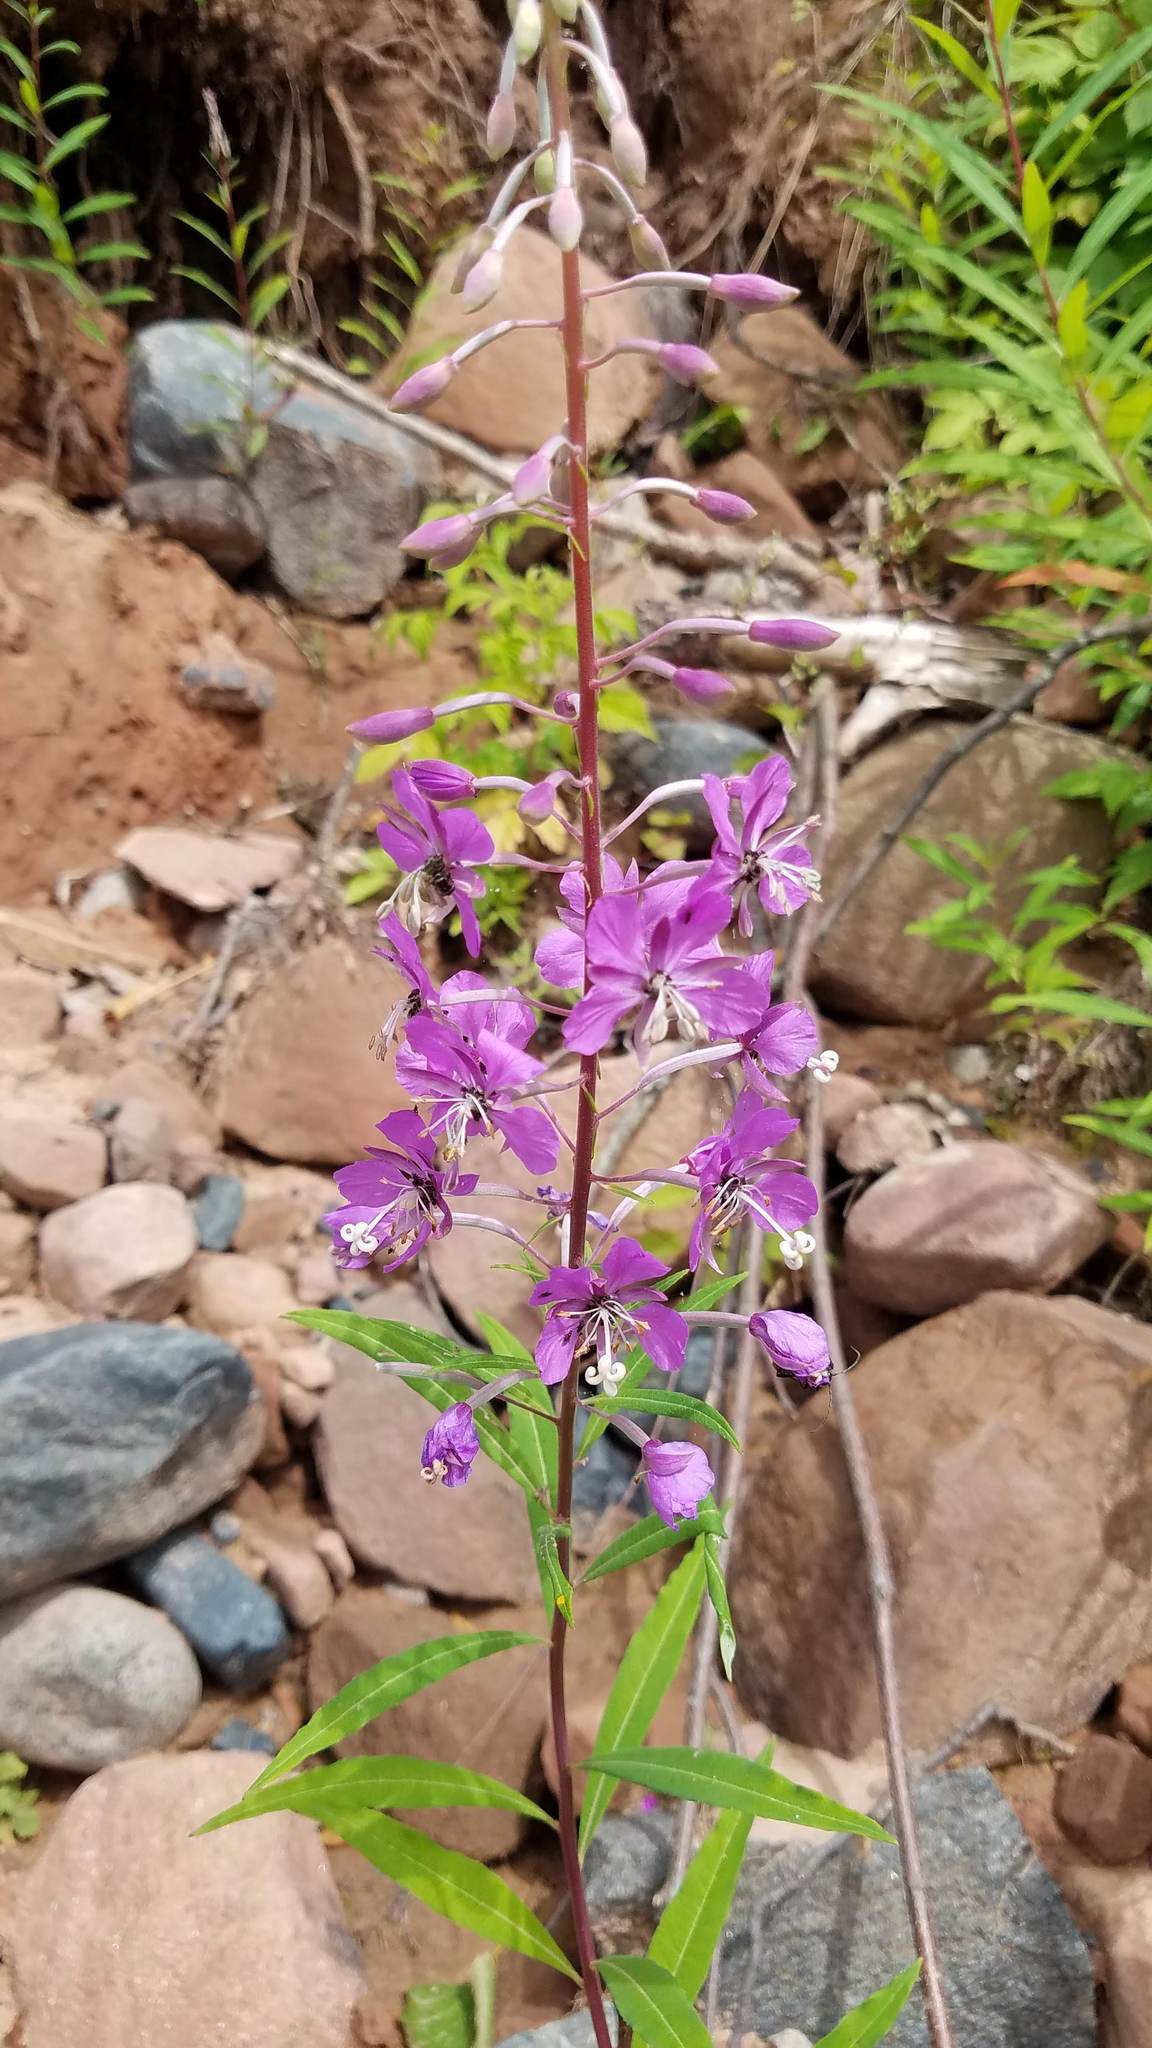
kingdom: Plantae
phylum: Tracheophyta
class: Magnoliopsida
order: Myrtales
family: Onagraceae
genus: Chamaenerion
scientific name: Chamaenerion angustifolium
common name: Fireweed
